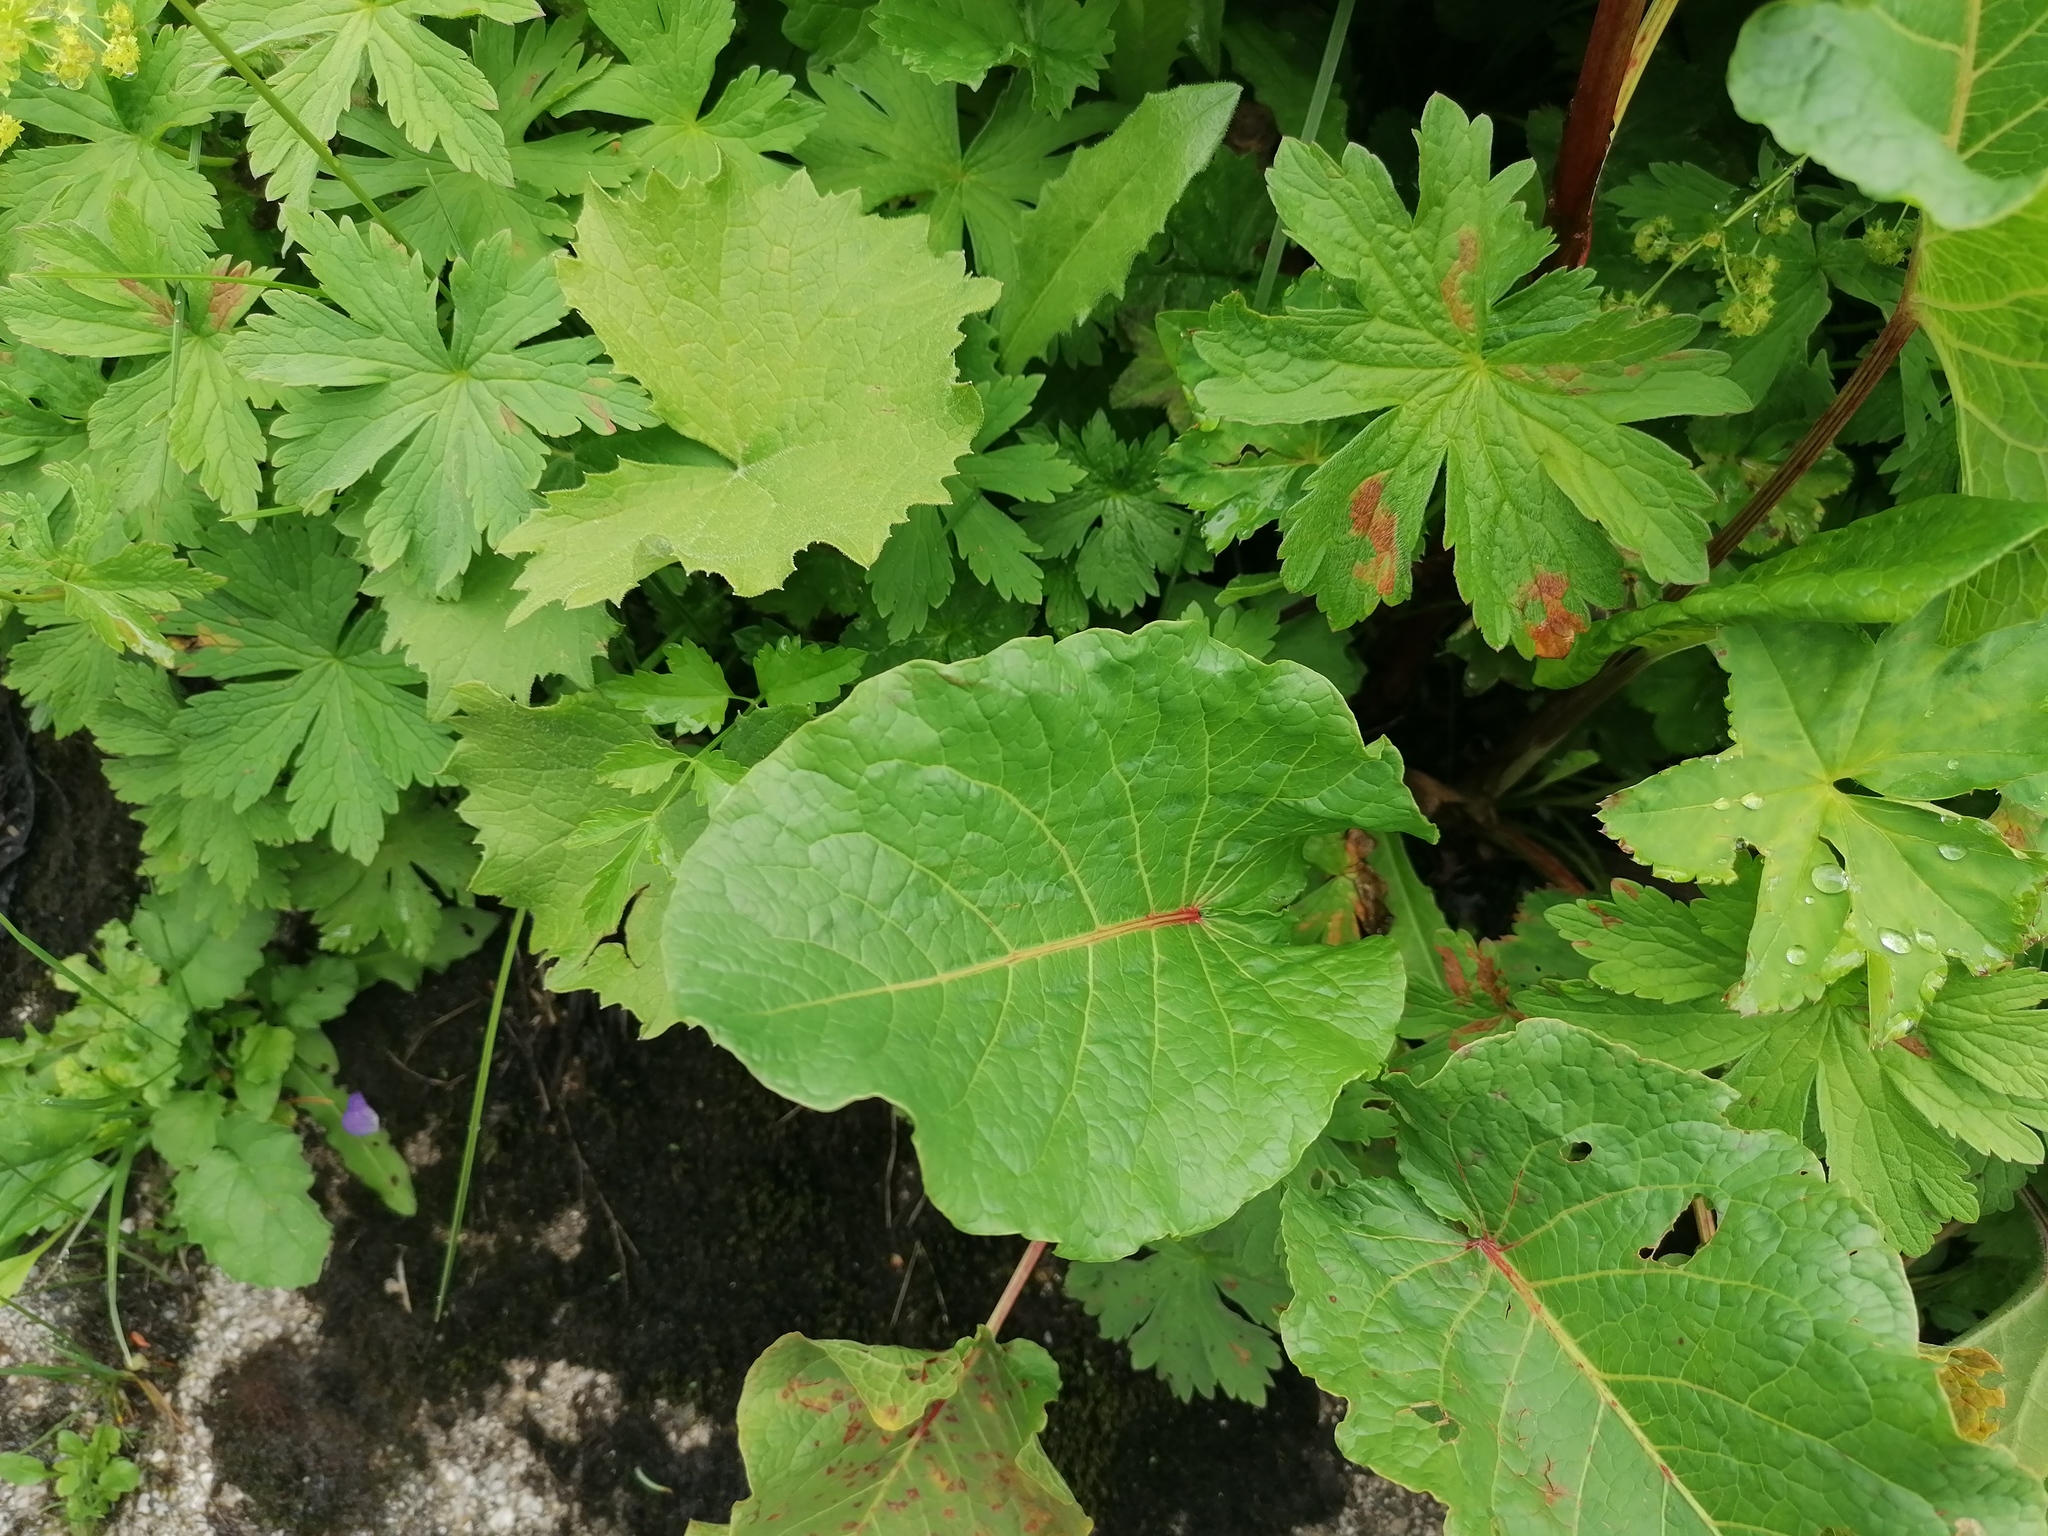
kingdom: Plantae
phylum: Tracheophyta
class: Magnoliopsida
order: Caryophyllales
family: Polygonaceae
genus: Rumex
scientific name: Rumex alpinus
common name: Alpine dock
